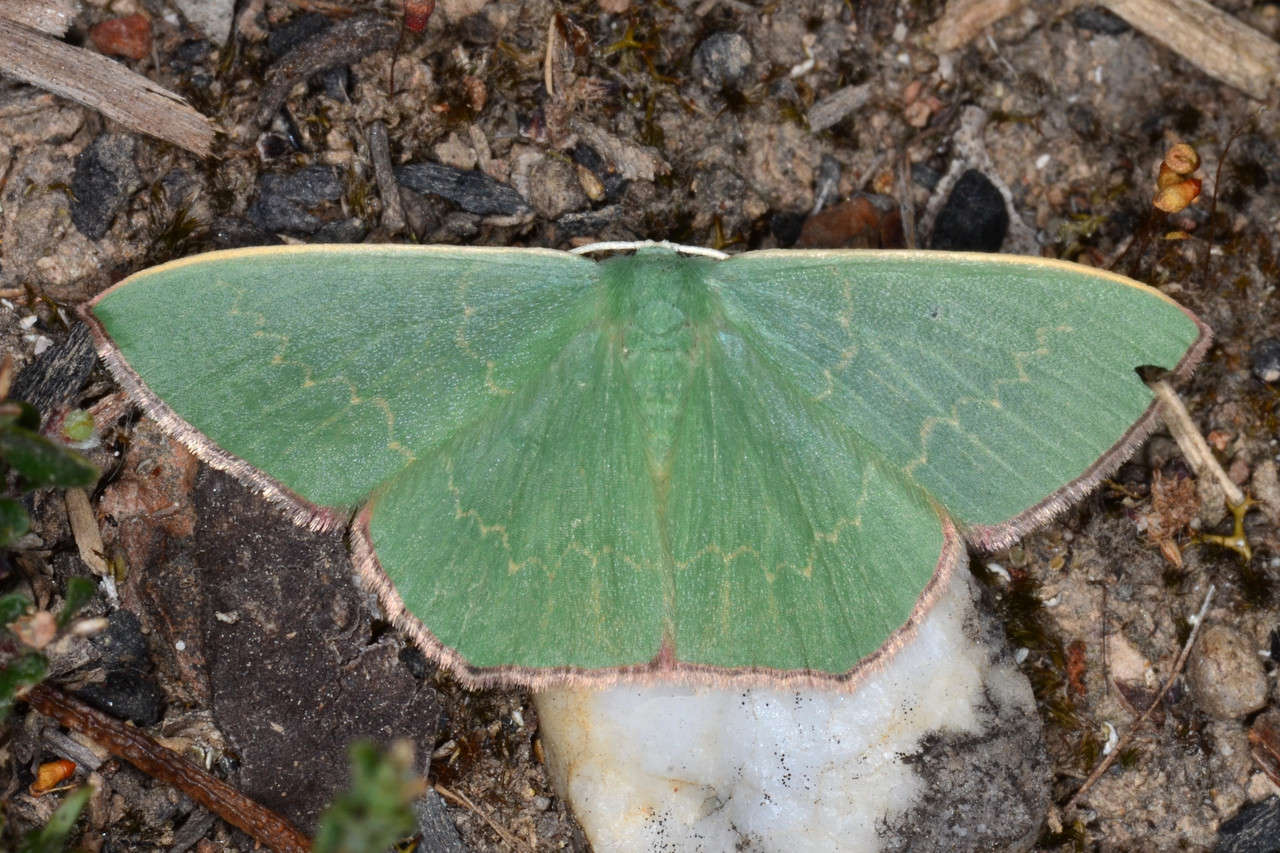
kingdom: Animalia
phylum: Arthropoda
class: Insecta
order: Lepidoptera
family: Geometridae
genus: Prasinocyma
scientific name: Prasinocyma semicrocea
